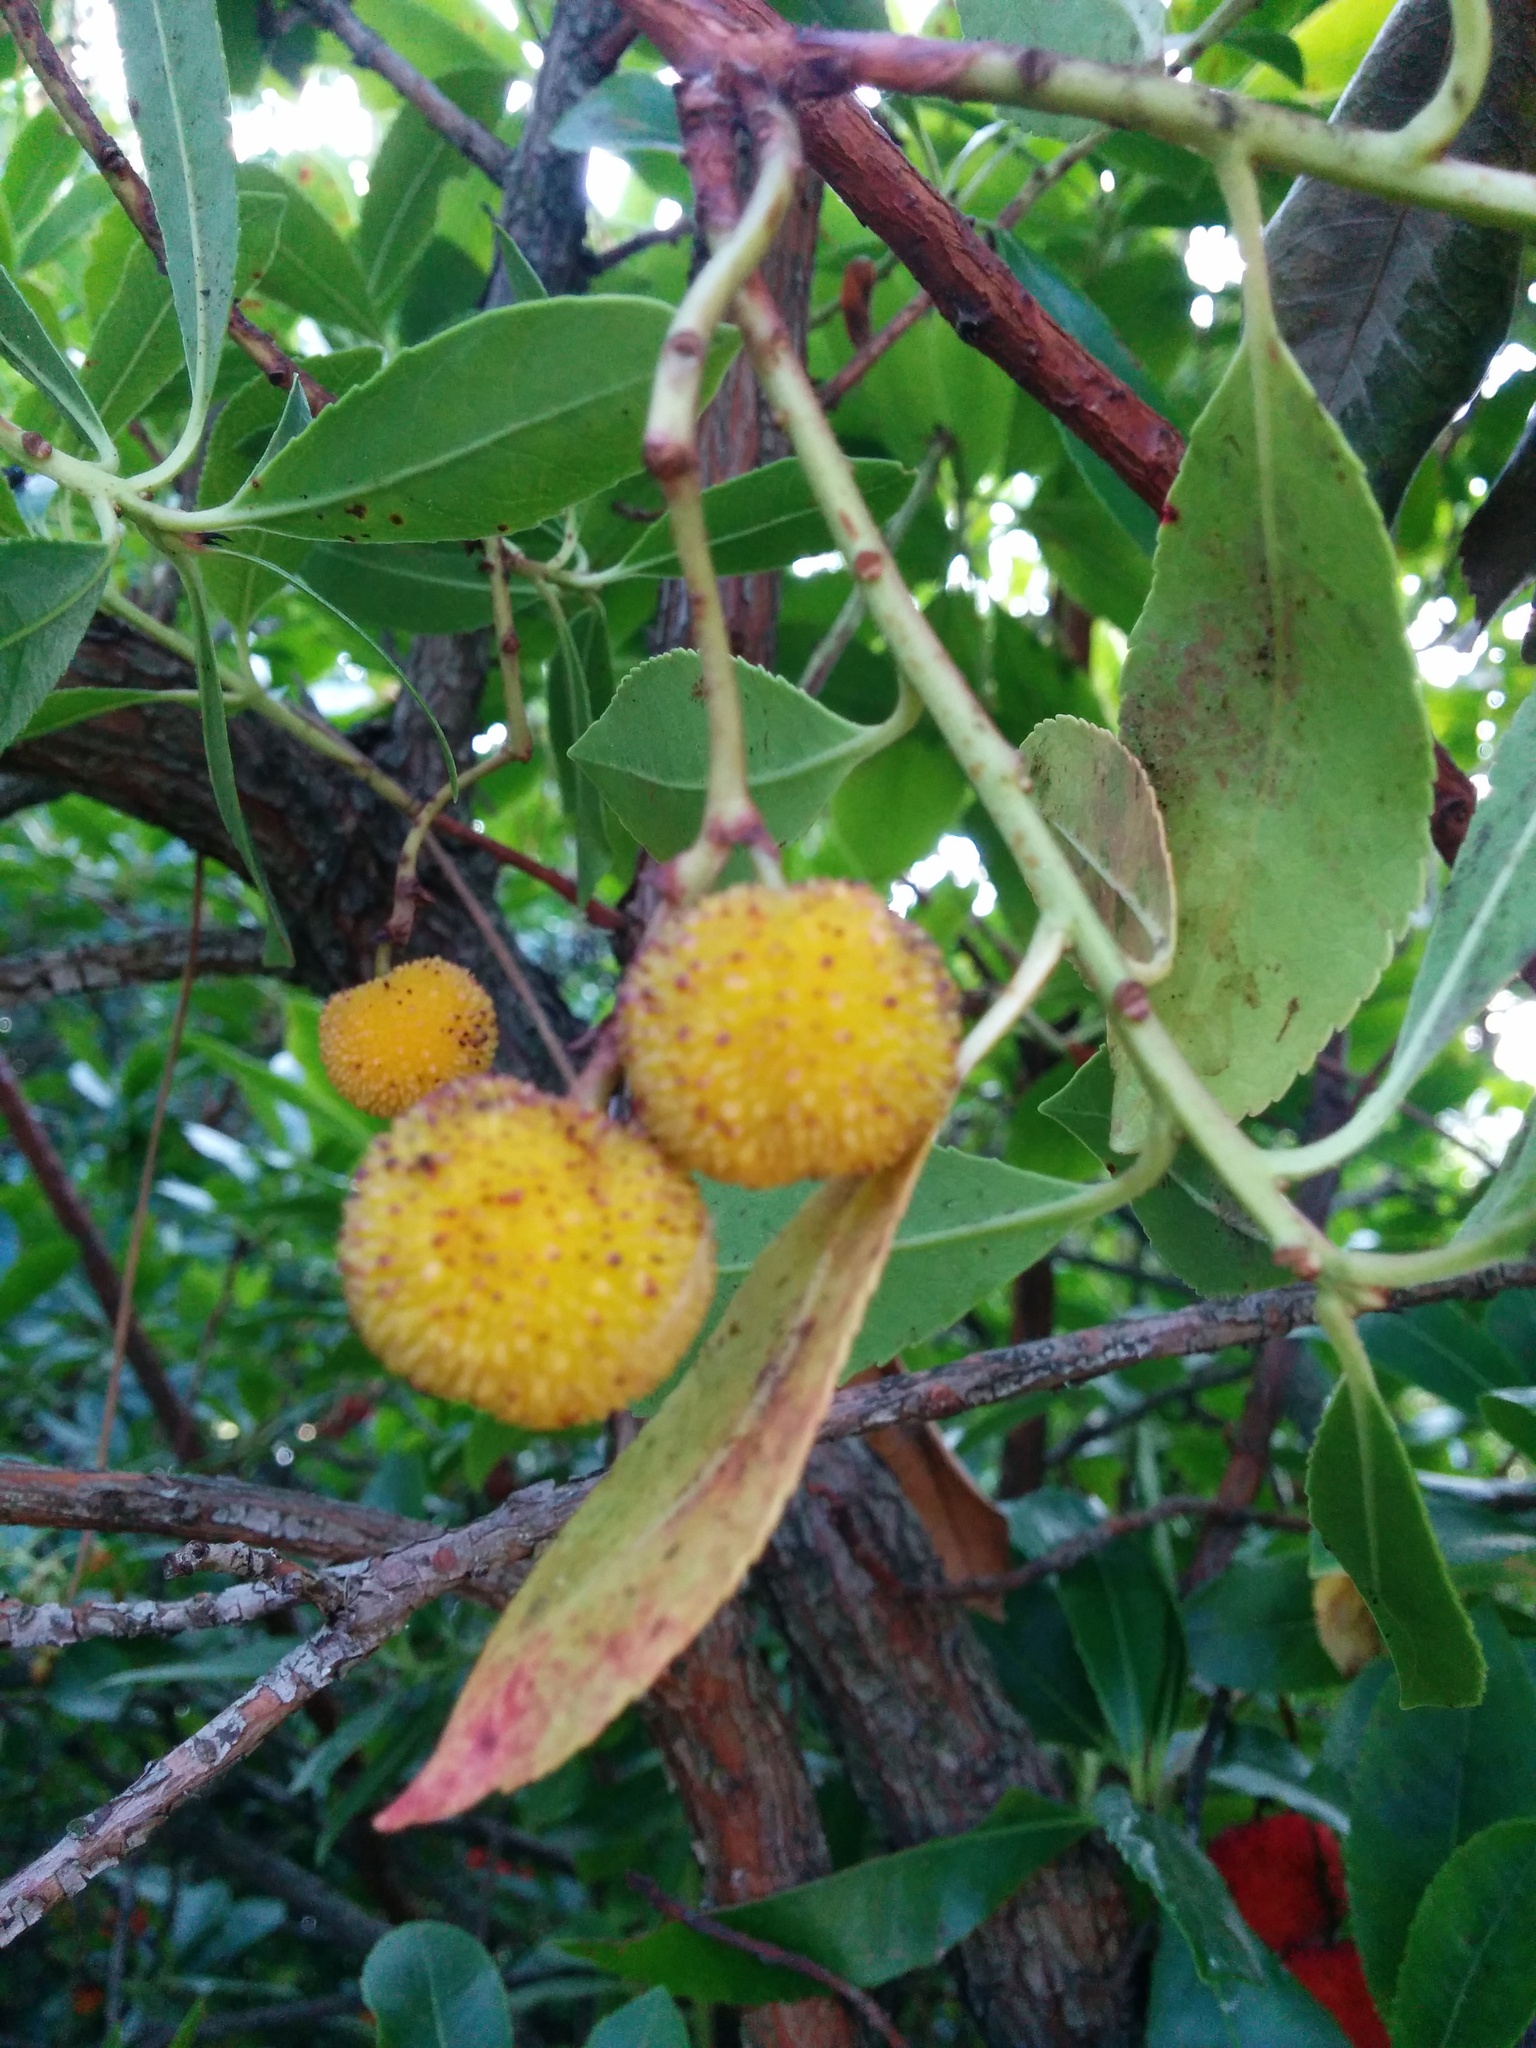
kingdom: Plantae
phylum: Tracheophyta
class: Magnoliopsida
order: Ericales
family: Ericaceae
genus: Arbutus
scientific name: Arbutus unedo
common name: Strawberry-tree
